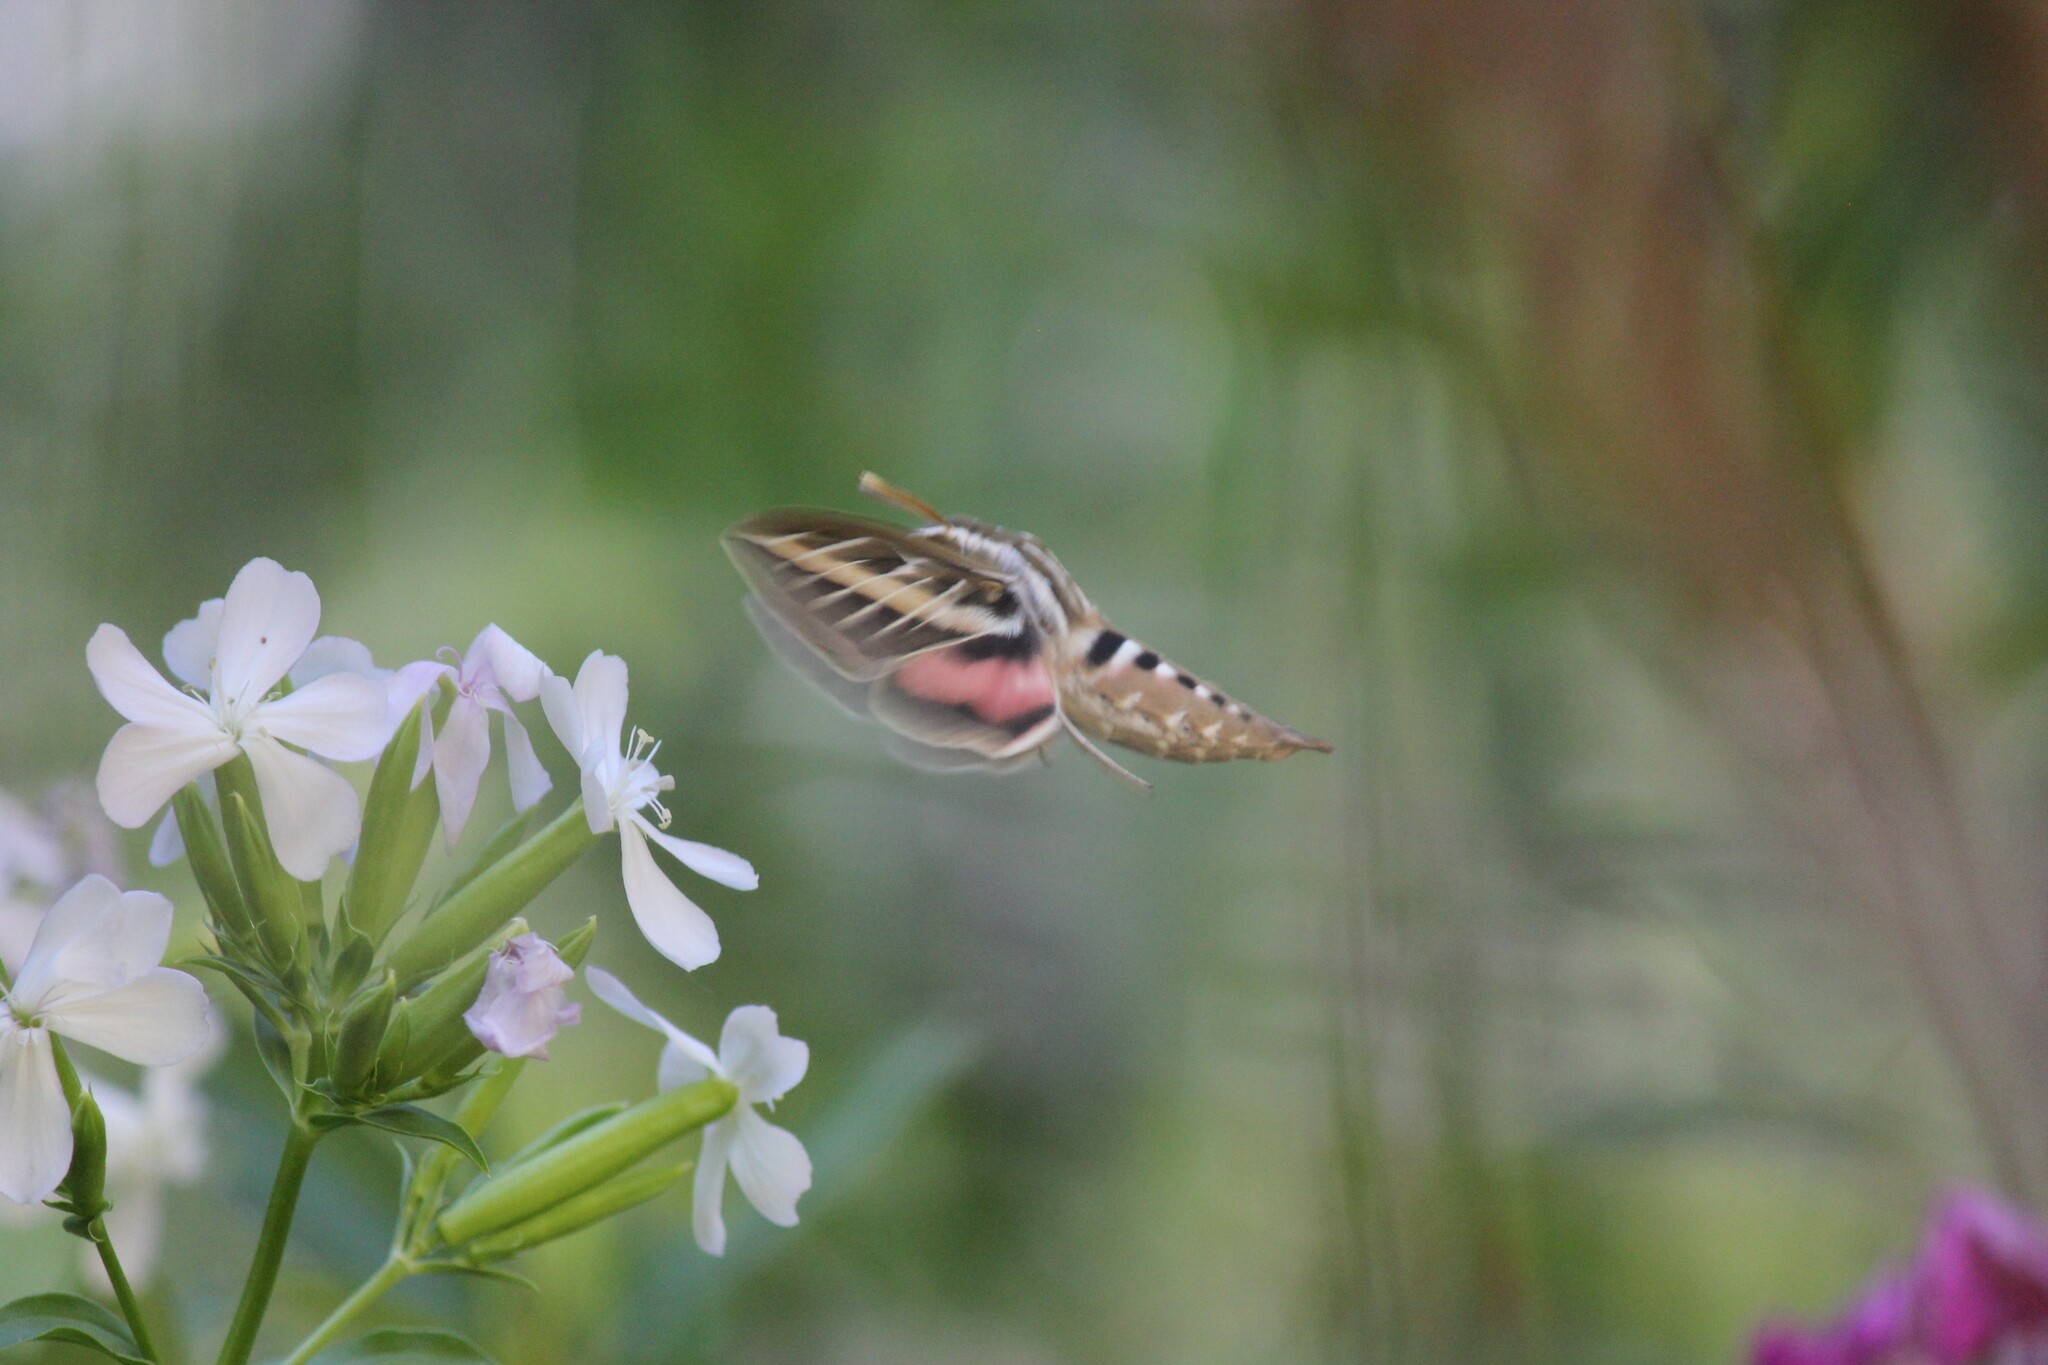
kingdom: Animalia
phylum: Arthropoda
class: Insecta
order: Lepidoptera
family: Sphingidae
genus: Hyles
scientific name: Hyles lineata
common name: White-lined sphinx
